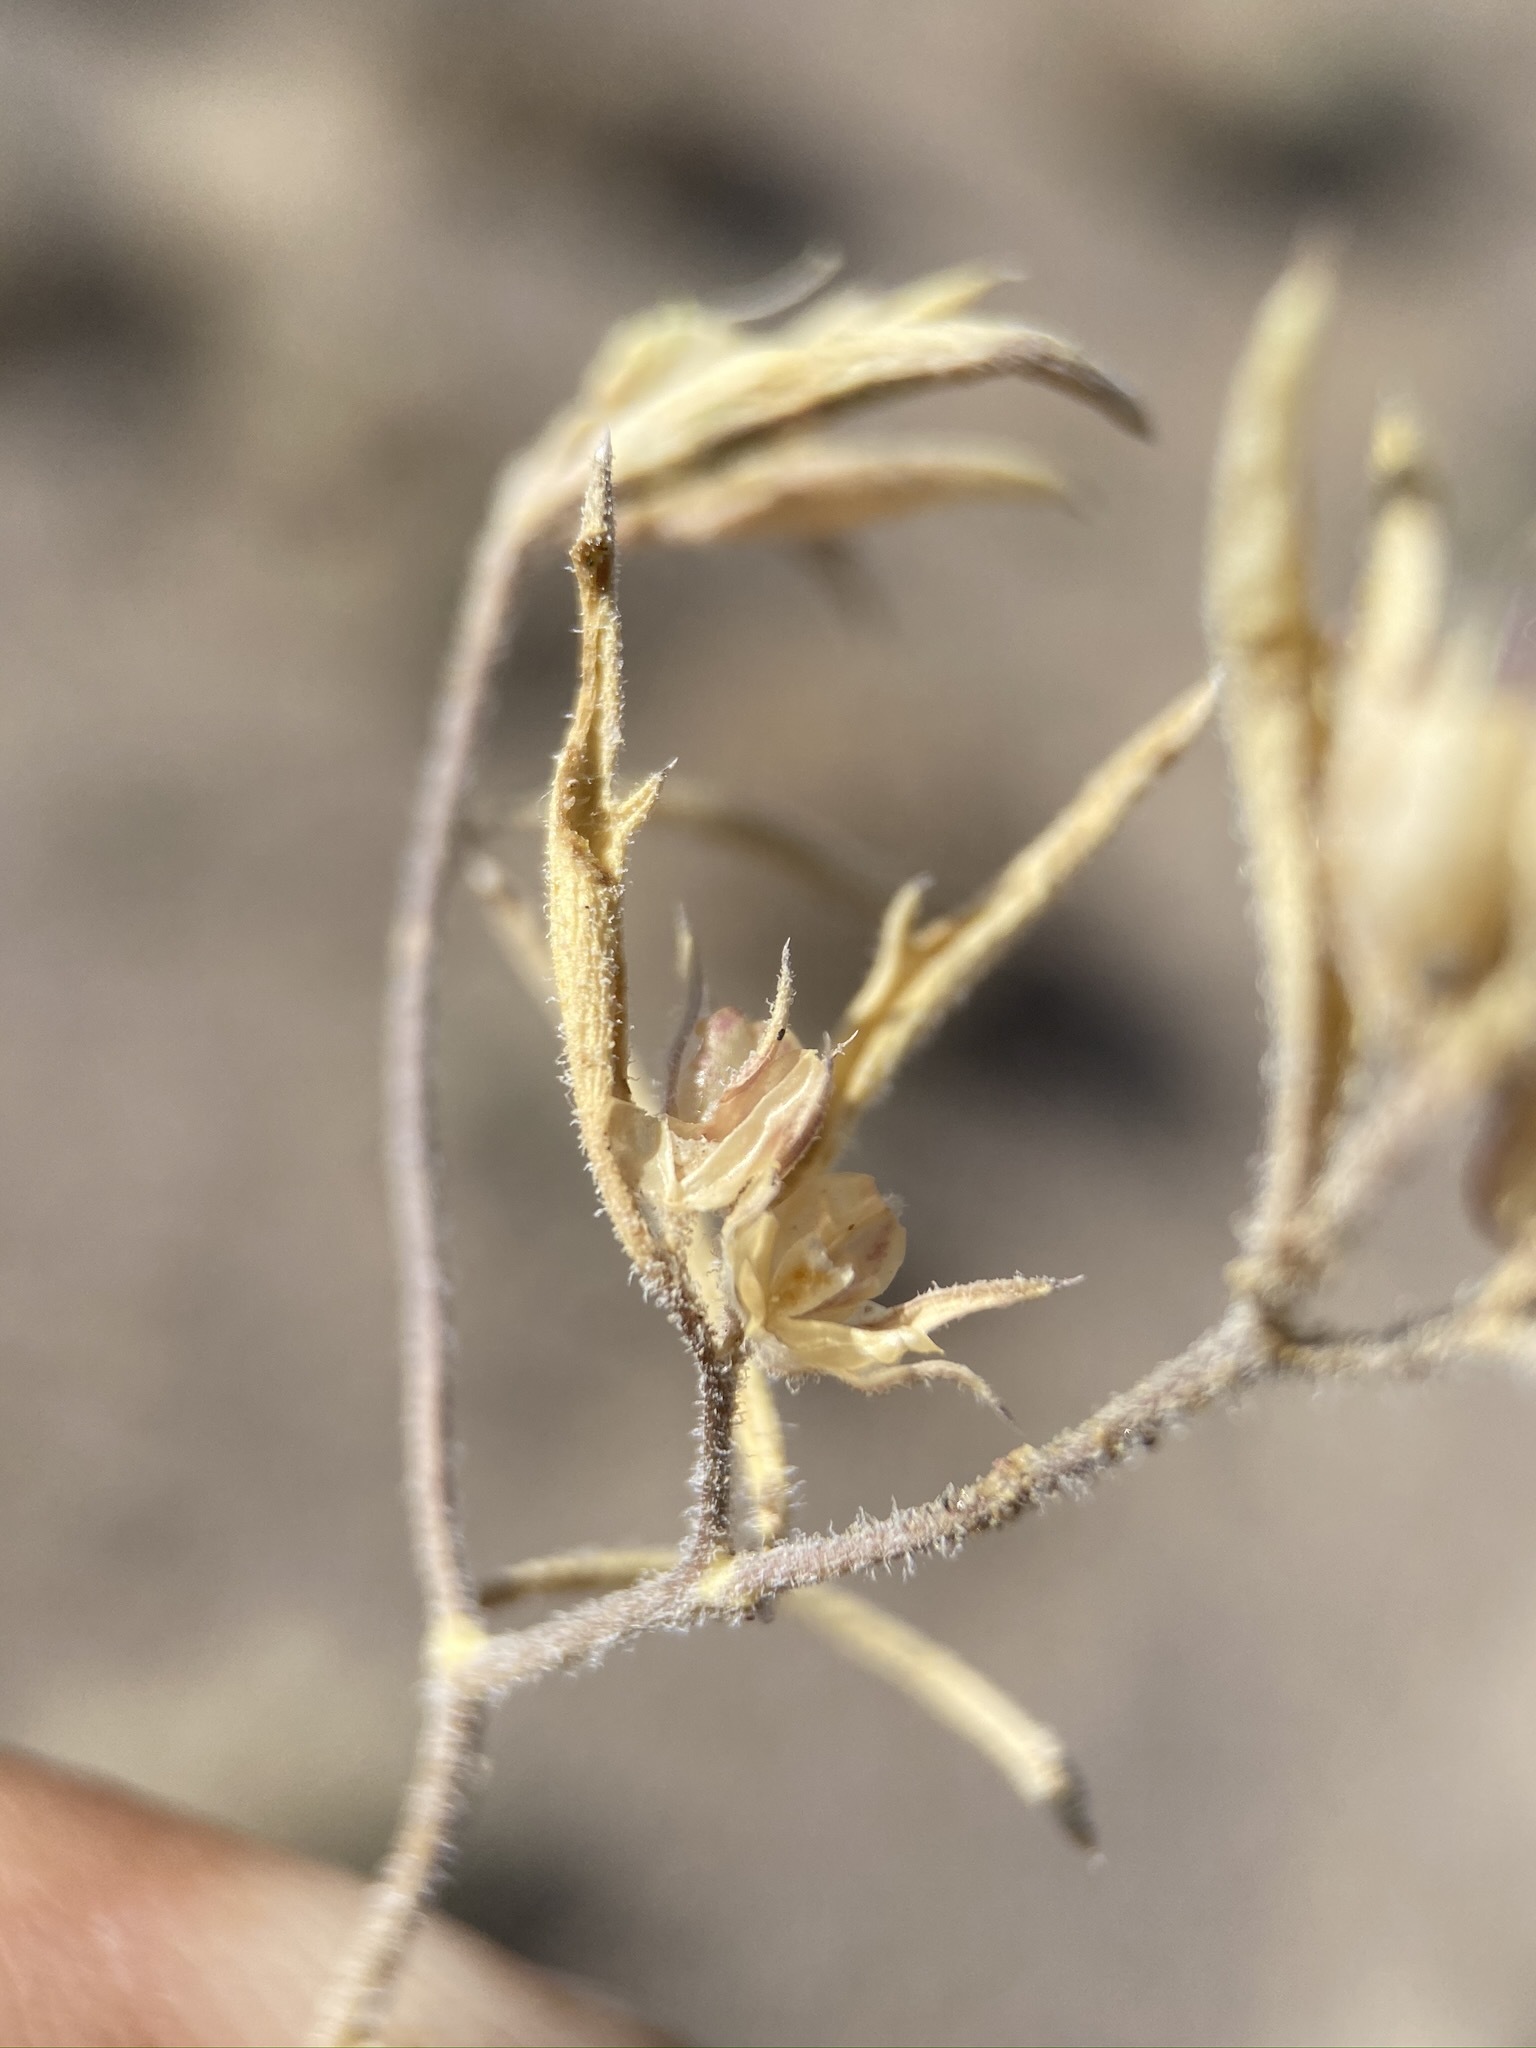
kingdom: Plantae
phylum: Tracheophyta
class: Magnoliopsida
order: Ericales
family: Polemoniaceae
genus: Loeseliastrum
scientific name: Loeseliastrum depressum
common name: Depressed ipomopsis
